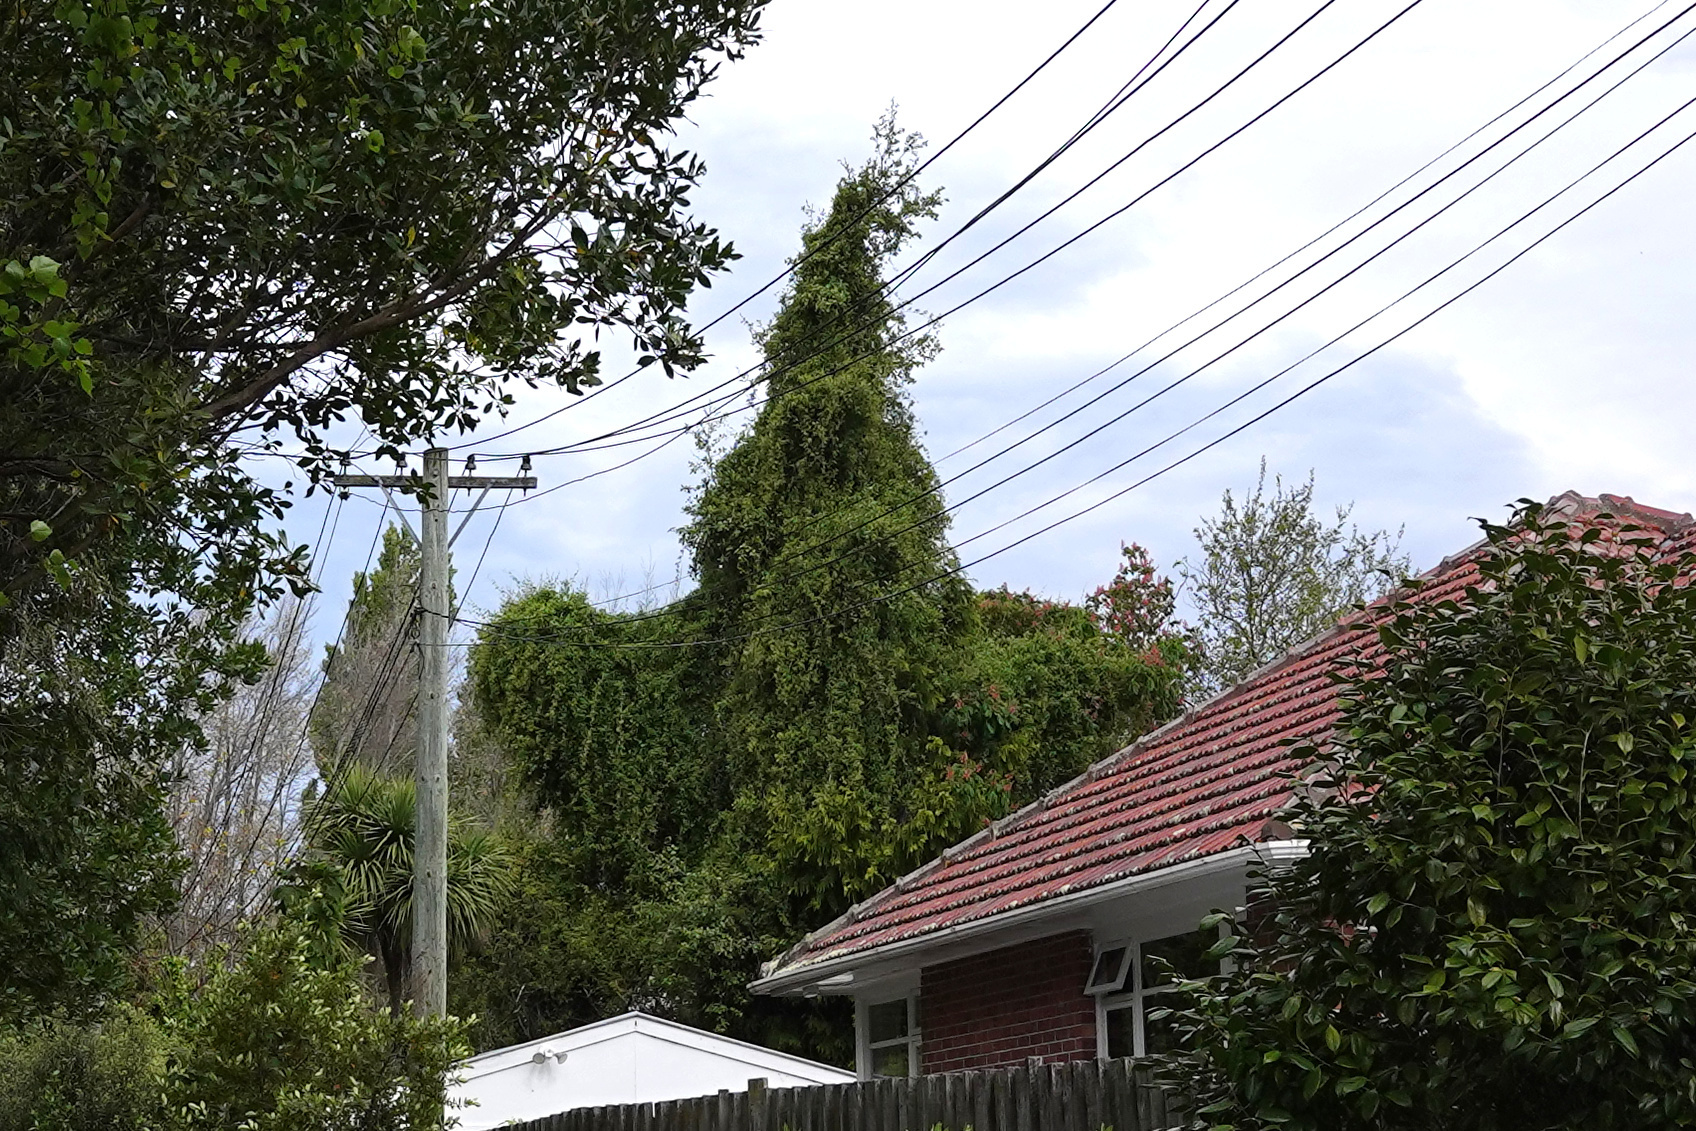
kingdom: Plantae
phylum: Tracheophyta
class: Magnoliopsida
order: Caryophyllales
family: Polygonaceae
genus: Muehlenbeckia
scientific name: Muehlenbeckia australis
